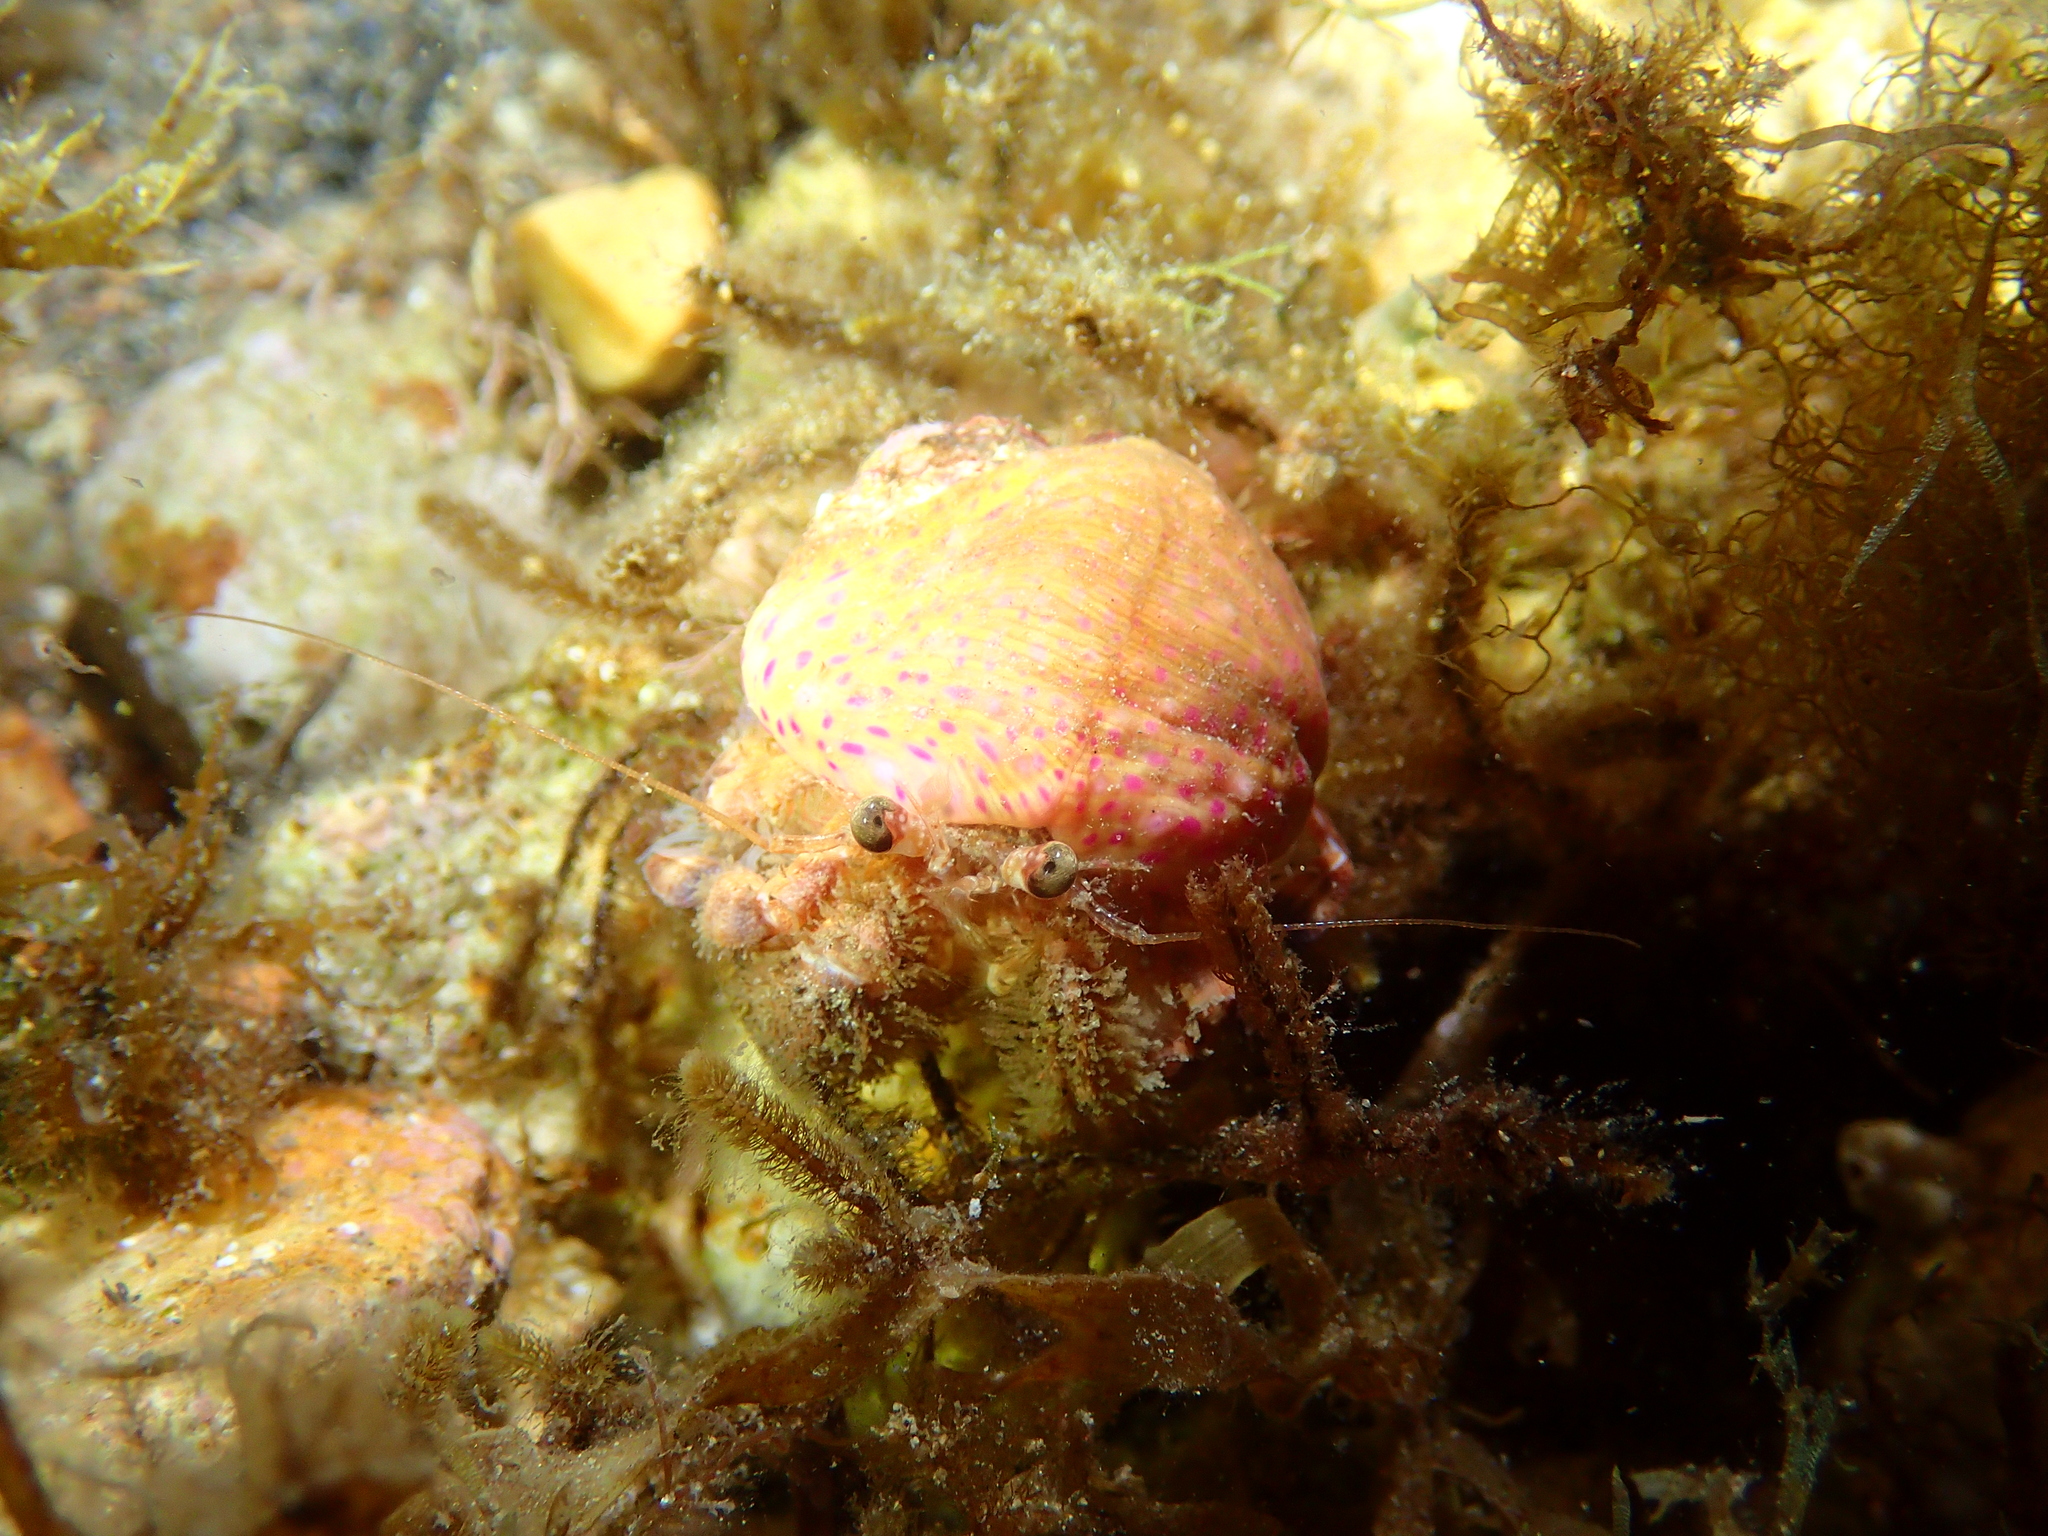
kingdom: Animalia
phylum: Arthropoda
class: Malacostraca
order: Decapoda
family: Paguridae
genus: Pagurus
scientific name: Pagurus prideaux
